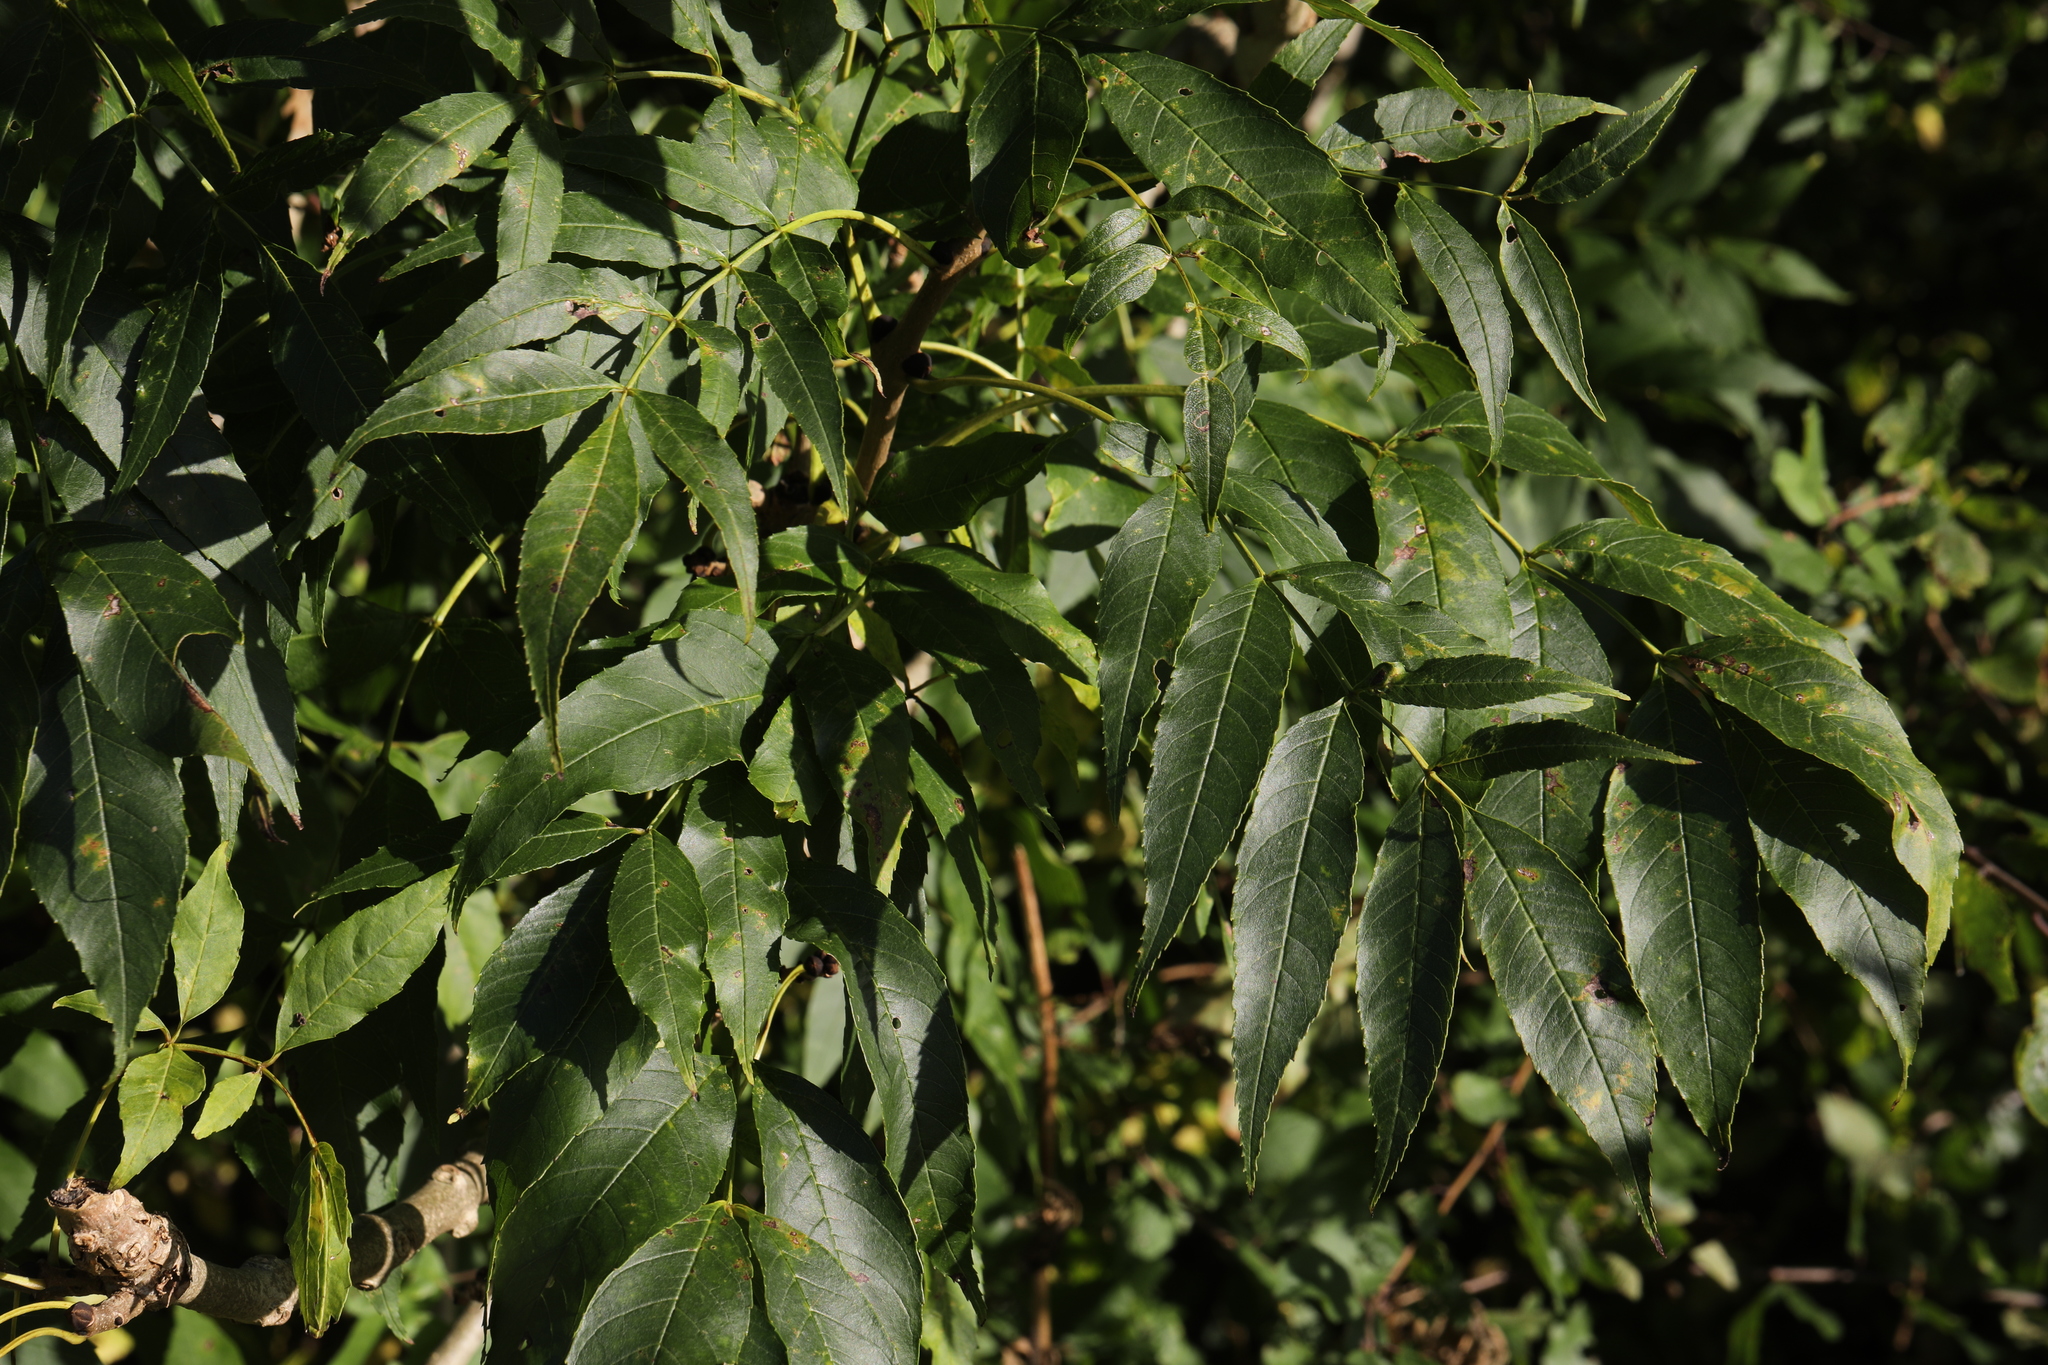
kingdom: Plantae
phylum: Tracheophyta
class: Magnoliopsida
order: Lamiales
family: Oleaceae
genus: Fraxinus
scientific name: Fraxinus excelsior
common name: European ash
